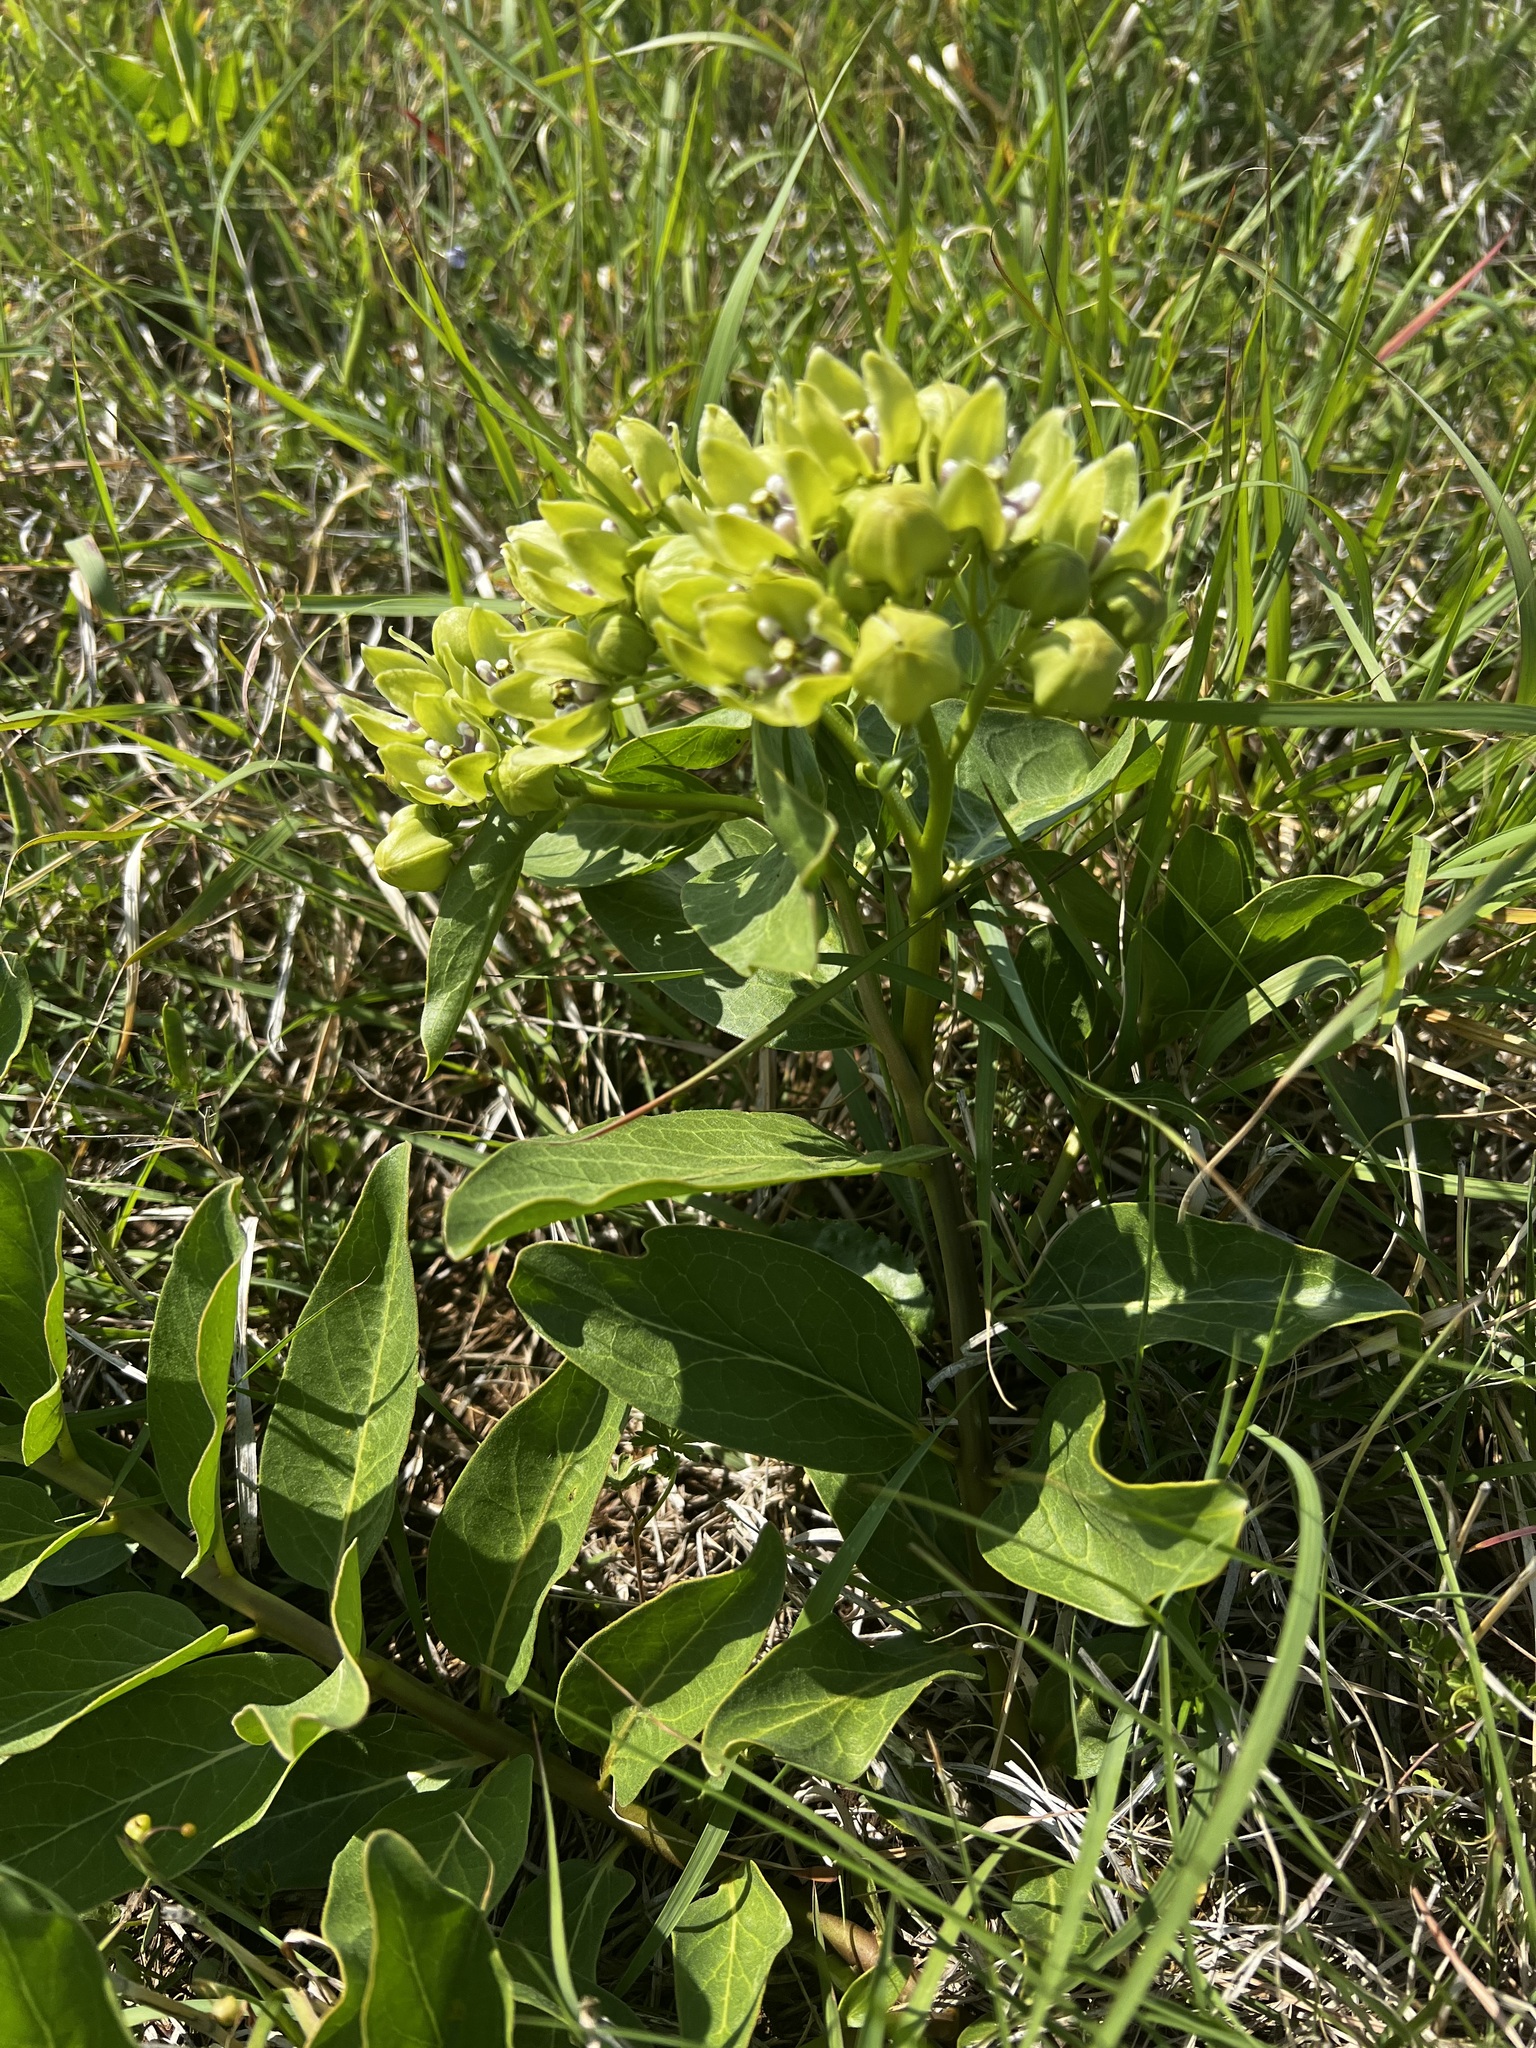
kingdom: Plantae
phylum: Tracheophyta
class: Magnoliopsida
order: Gentianales
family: Apocynaceae
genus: Asclepias
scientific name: Asclepias viridis
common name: Antelope-horns
